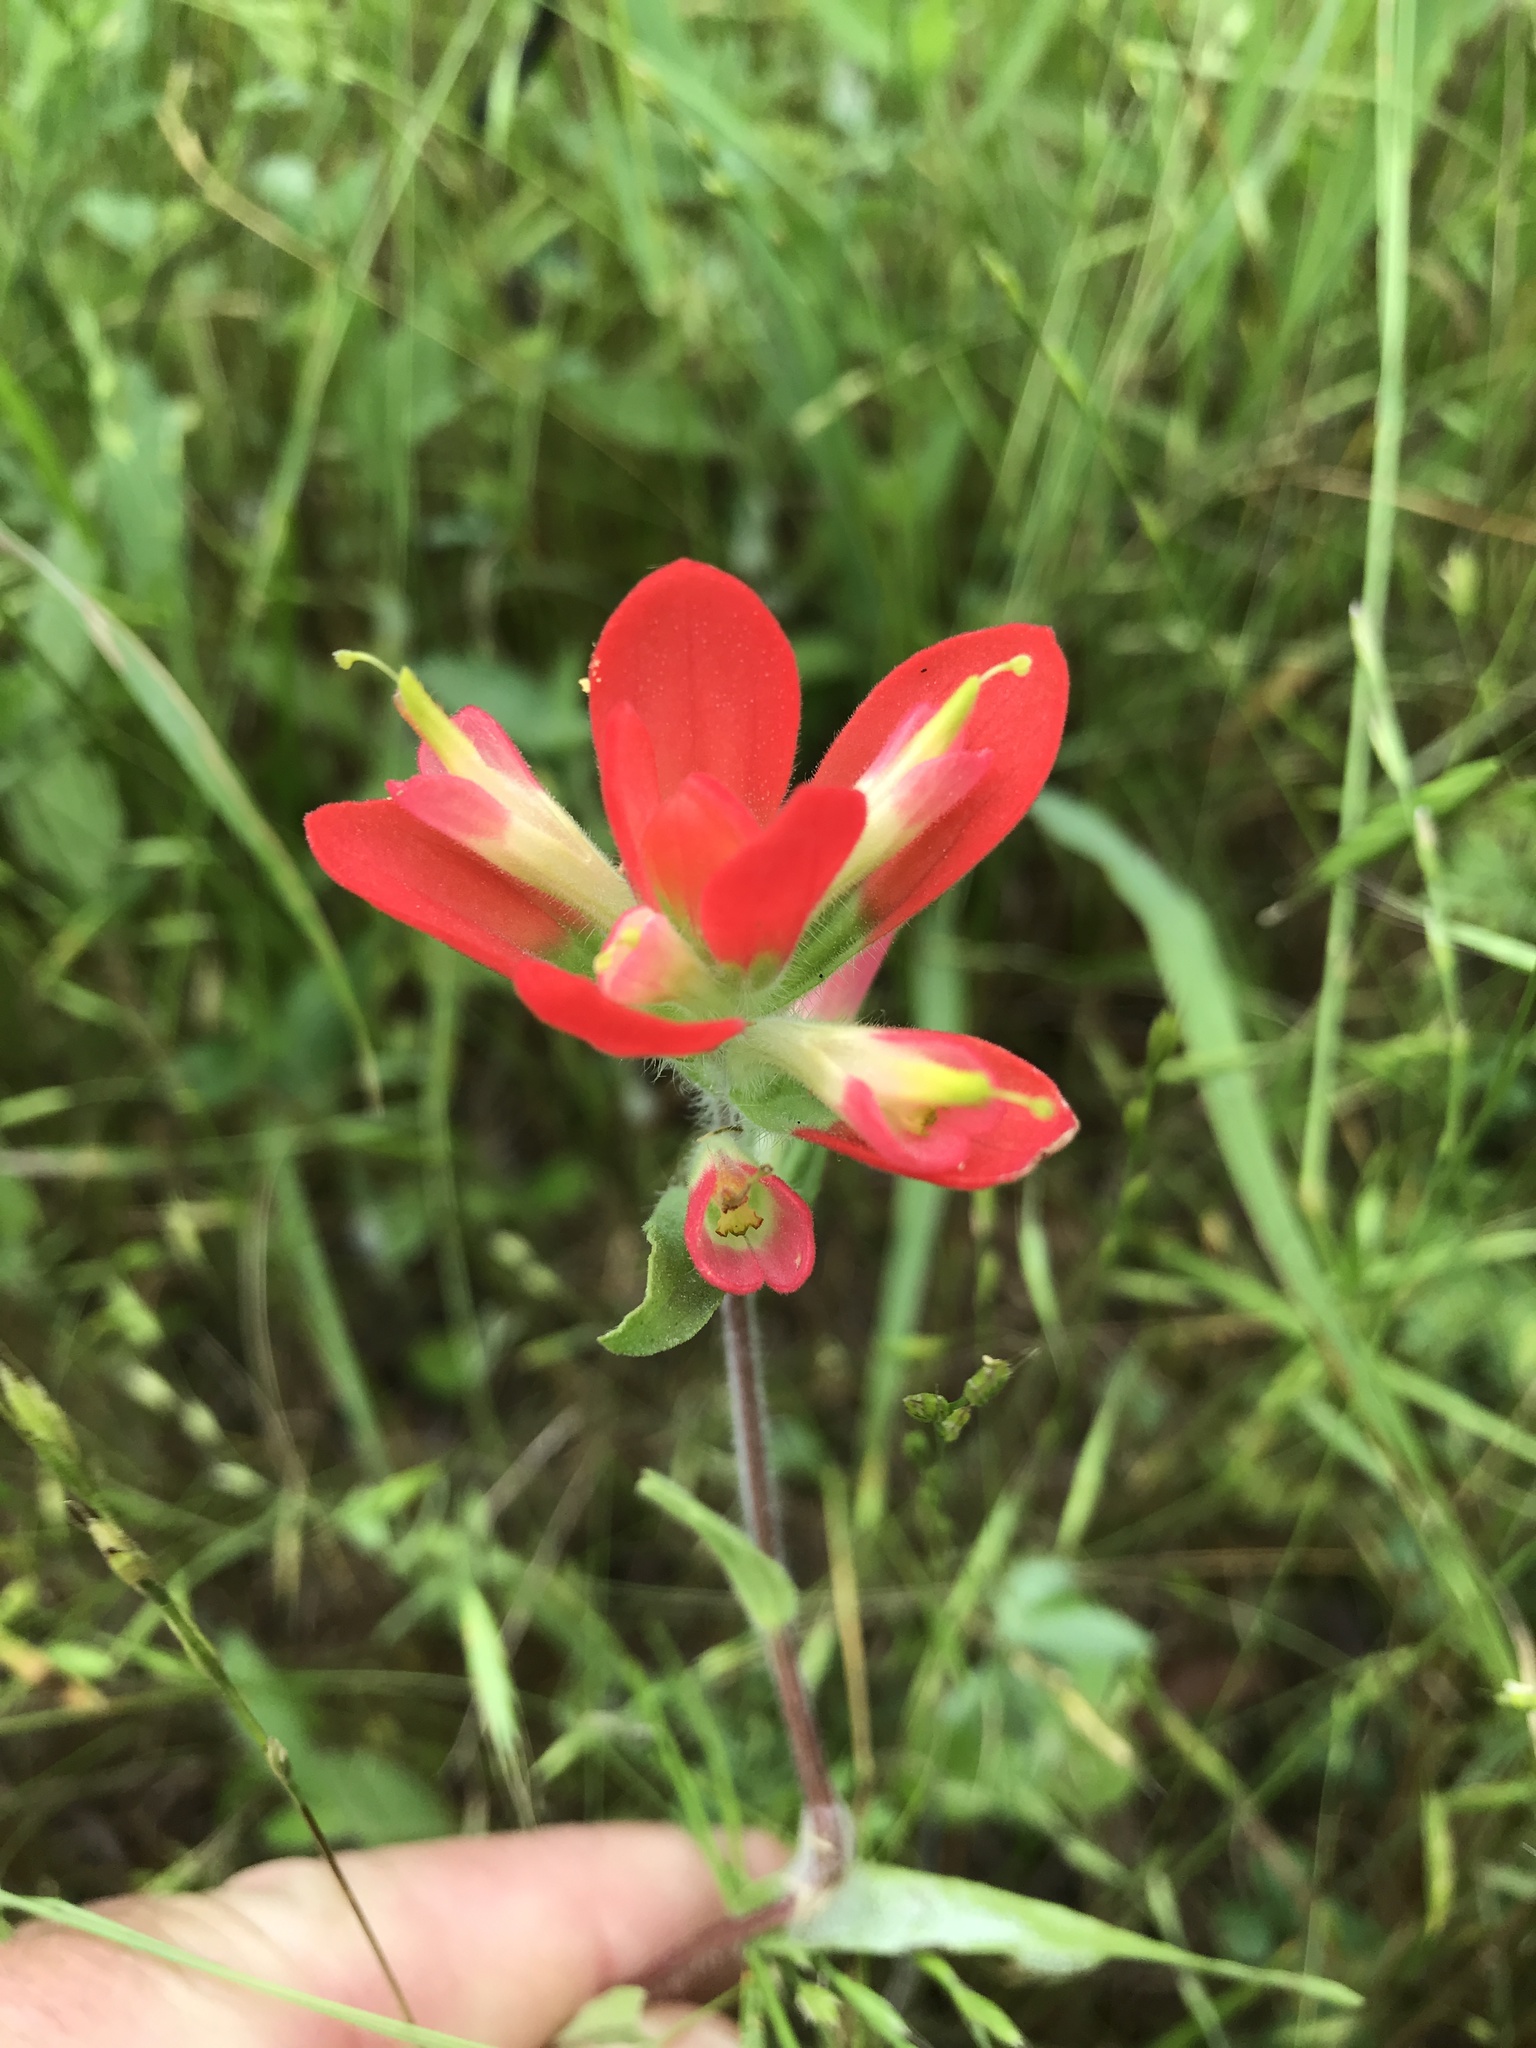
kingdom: Plantae
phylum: Tracheophyta
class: Magnoliopsida
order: Lamiales
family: Orobanchaceae
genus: Castilleja
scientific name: Castilleja indivisa
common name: Texas paintbrush
